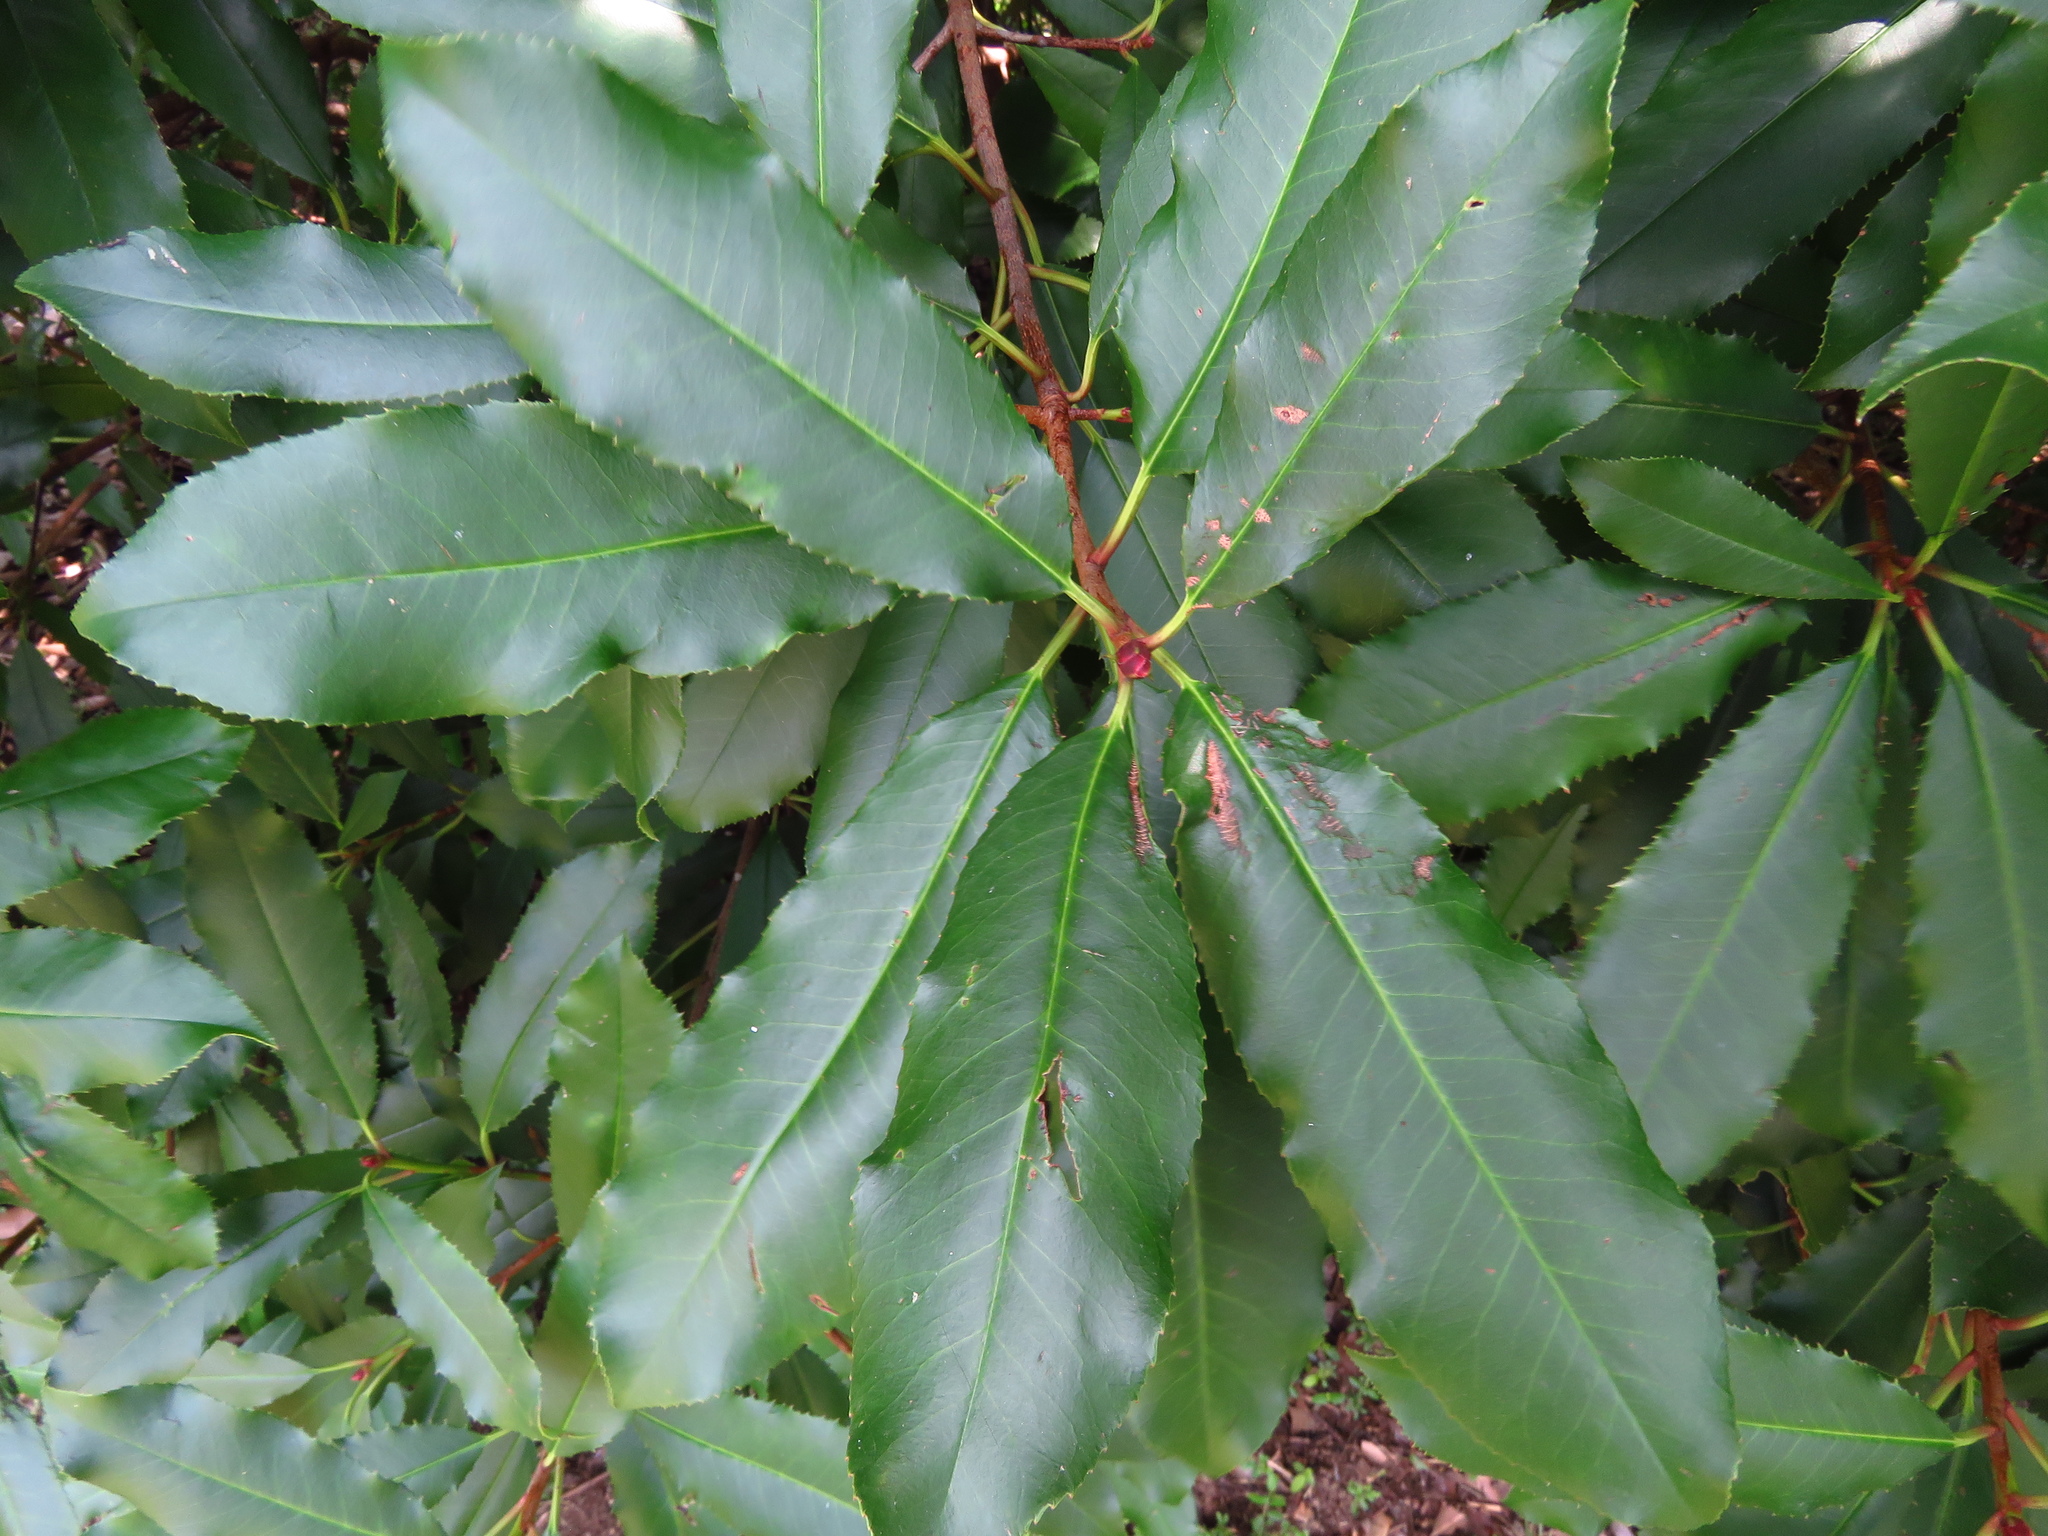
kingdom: Plantae
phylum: Tracheophyta
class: Magnoliopsida
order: Rosales
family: Rosaceae
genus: Photinia
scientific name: Photinia serratifolia
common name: Taiwanese photinia
